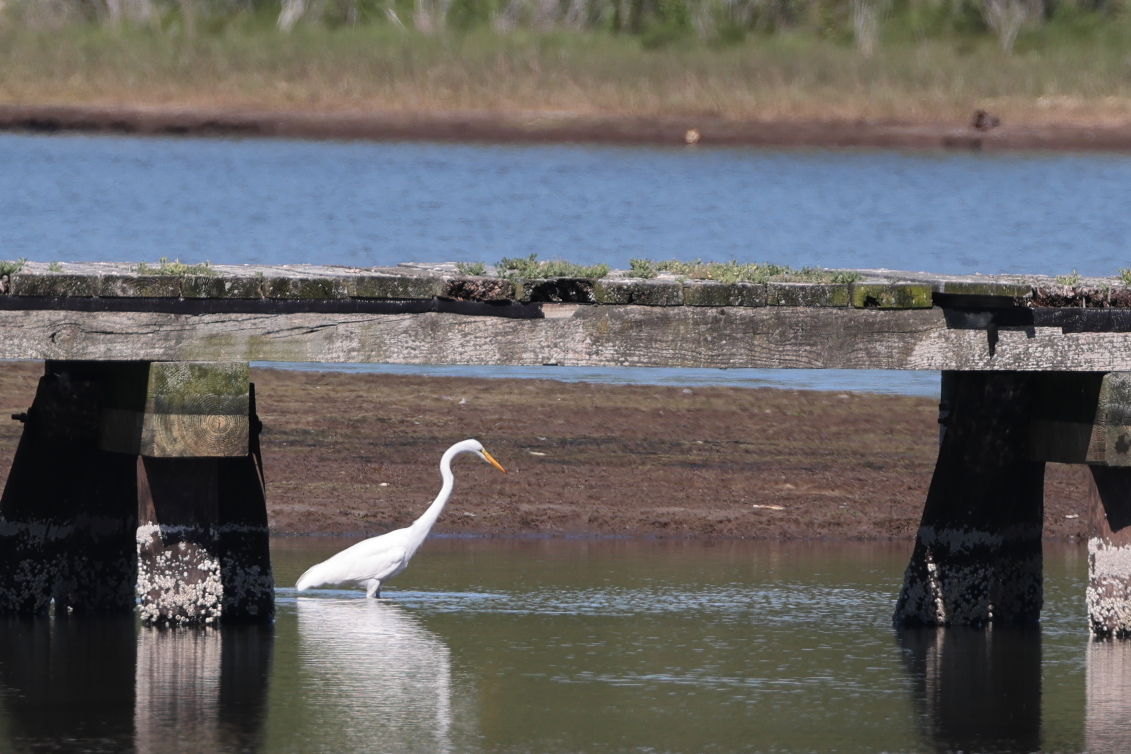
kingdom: Animalia
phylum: Chordata
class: Aves
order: Pelecaniformes
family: Ardeidae
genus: Ardea
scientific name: Ardea alba
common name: Great egret
